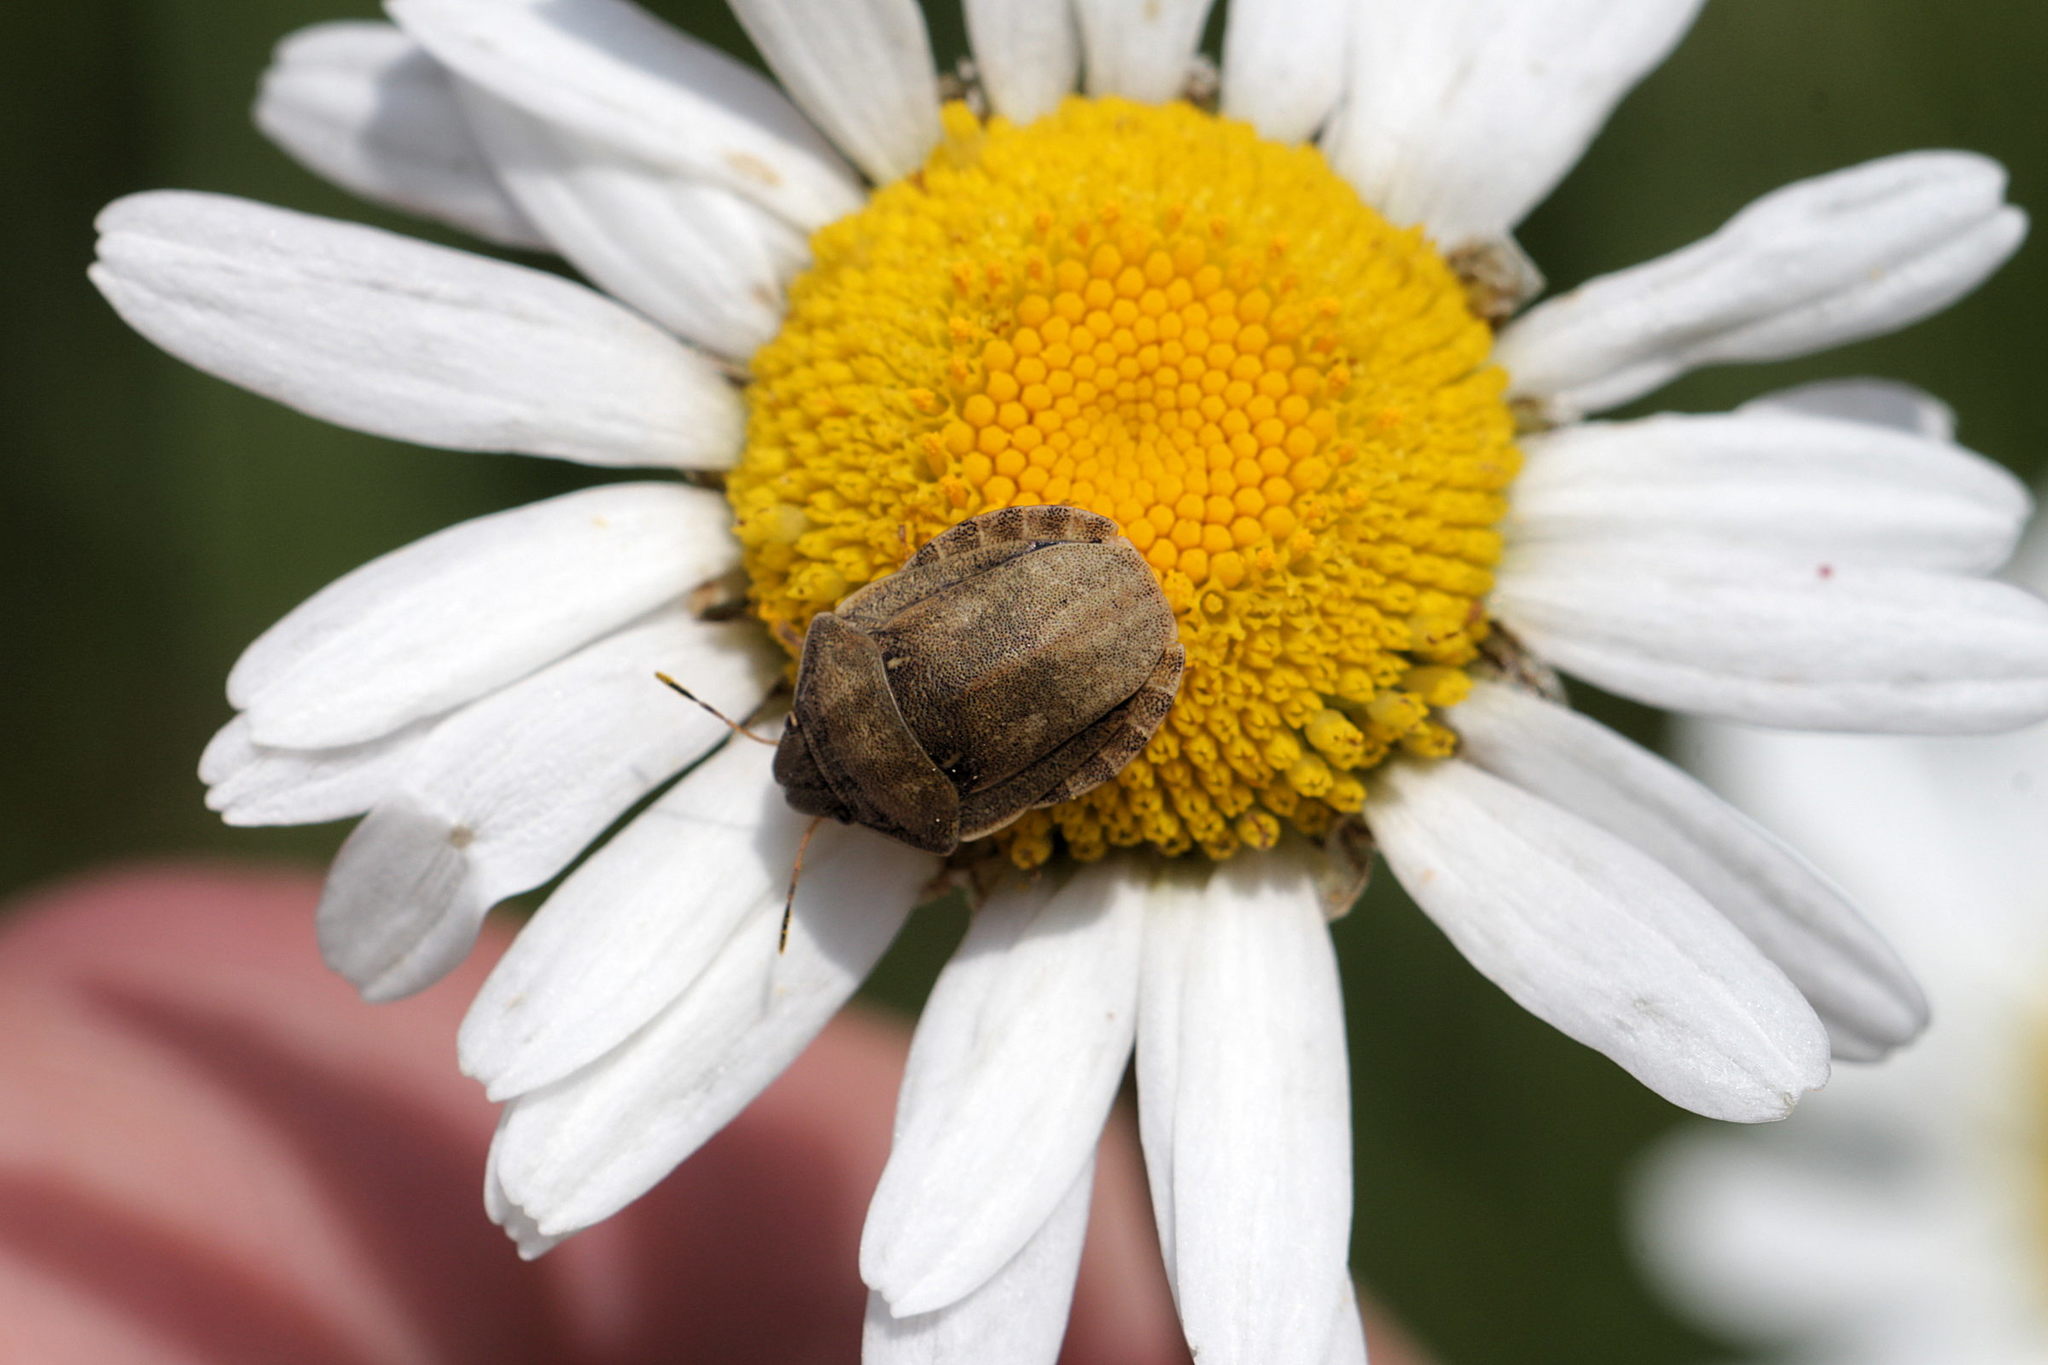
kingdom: Animalia
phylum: Arthropoda
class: Insecta
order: Hemiptera
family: Scutelleridae
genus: Eurygaster
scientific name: Eurygaster testudinaria
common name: Tortoise bug
